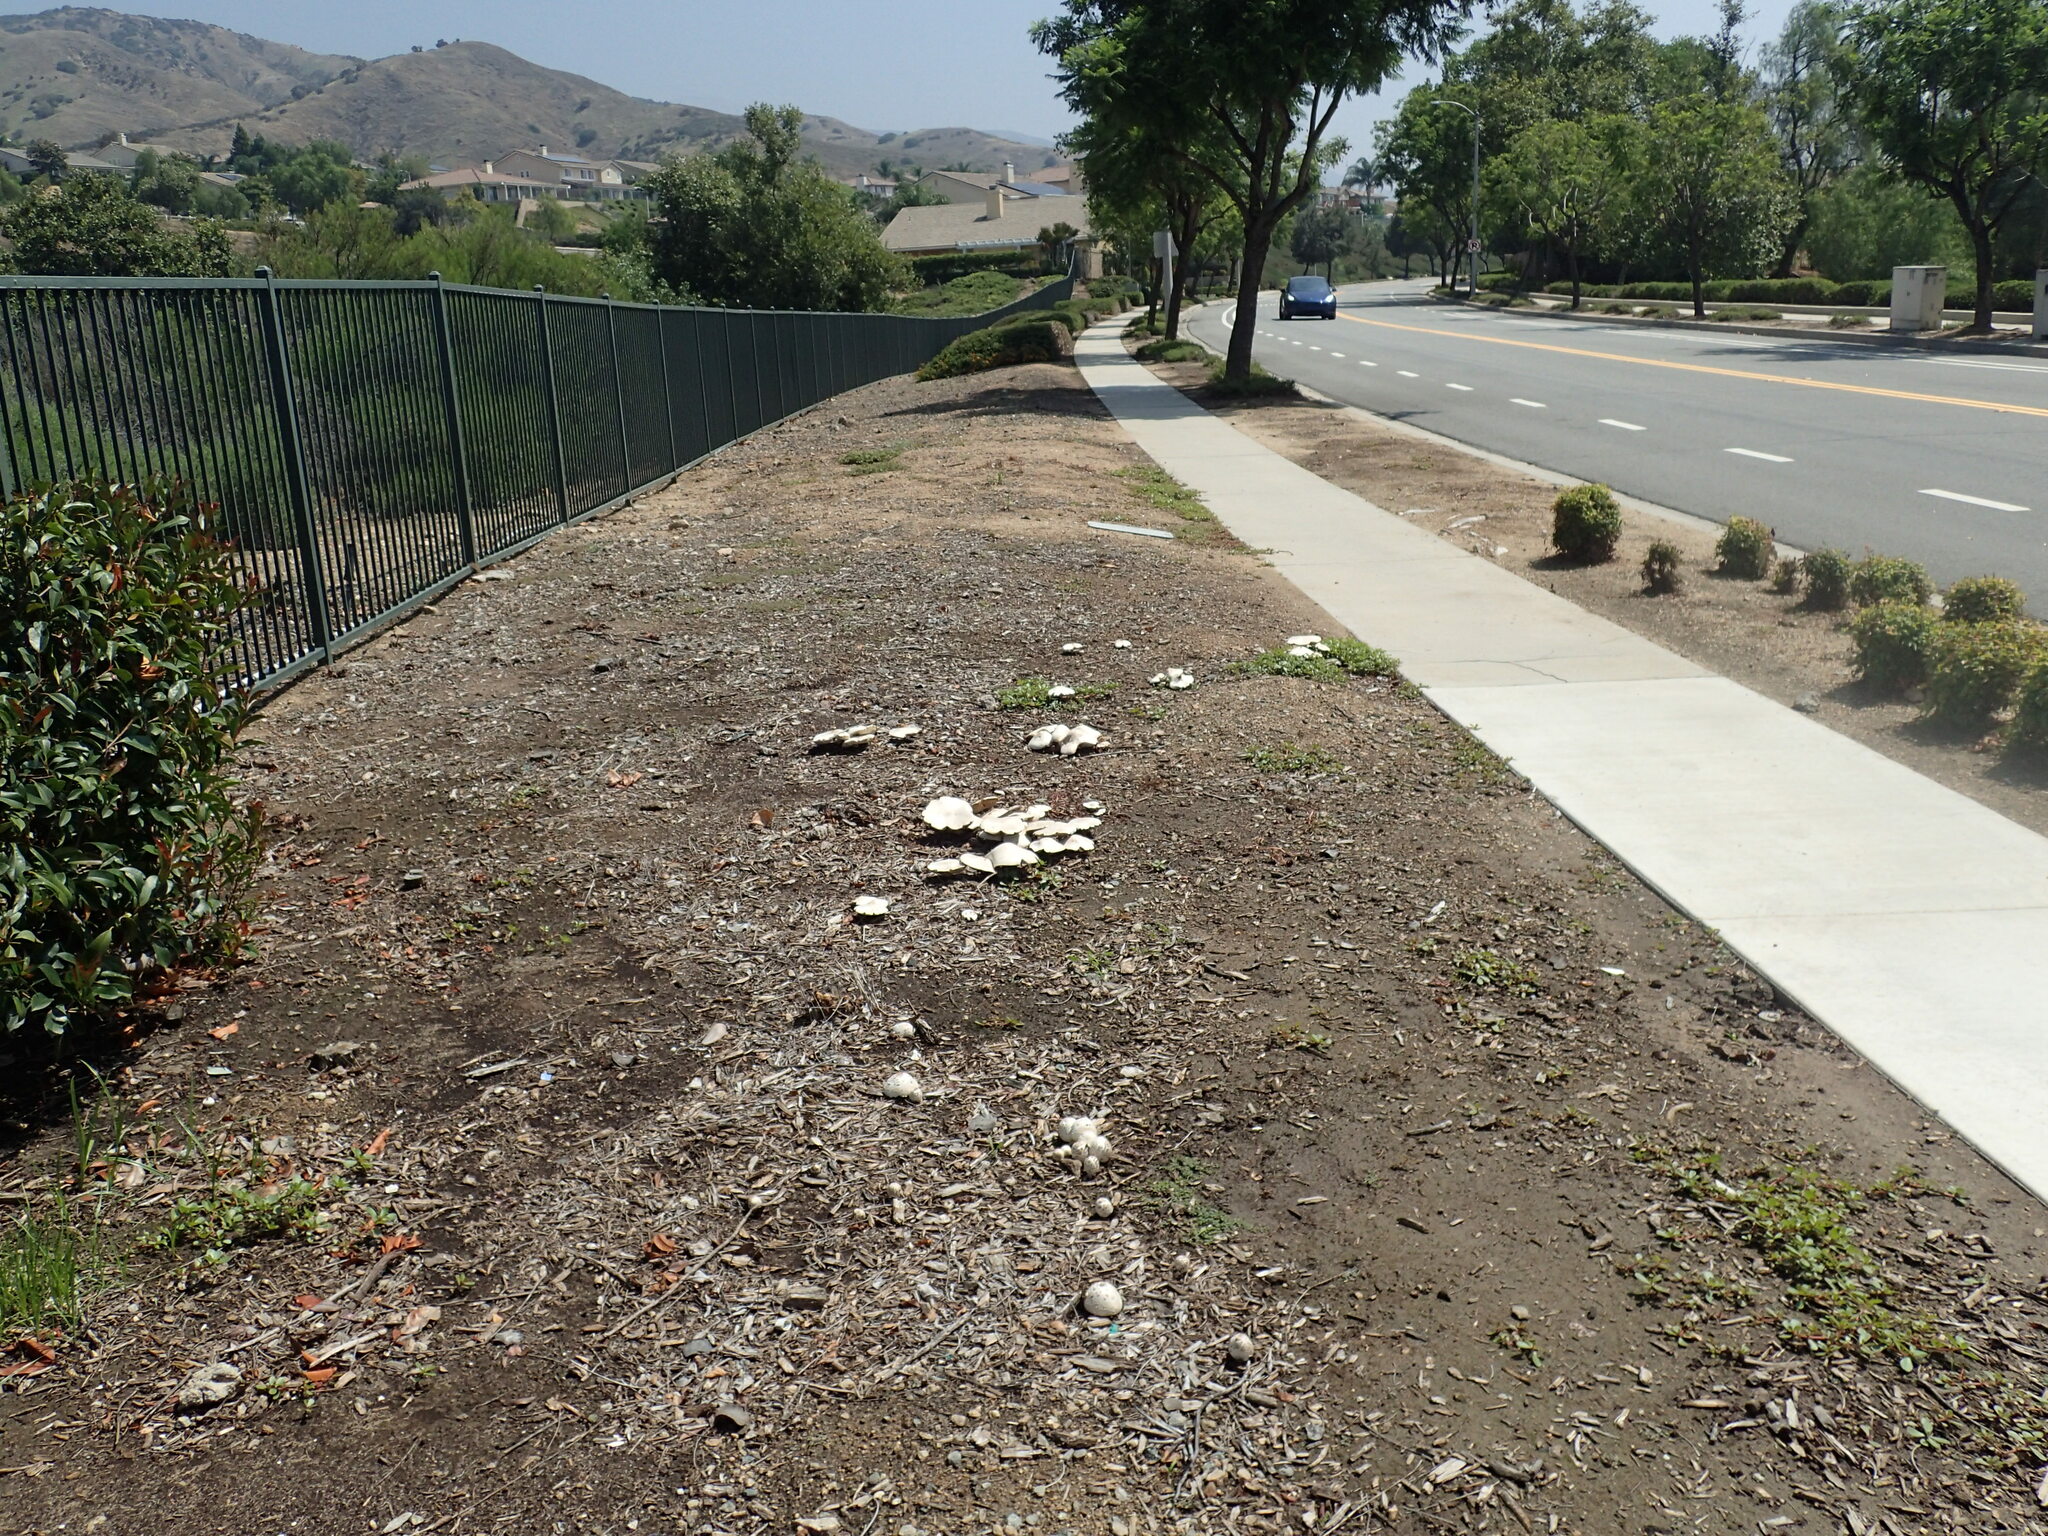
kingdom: Fungi
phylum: Basidiomycota
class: Agaricomycetes
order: Agaricales
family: Agaricaceae
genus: Chlorophyllum
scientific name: Chlorophyllum molybdites
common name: False parasol
